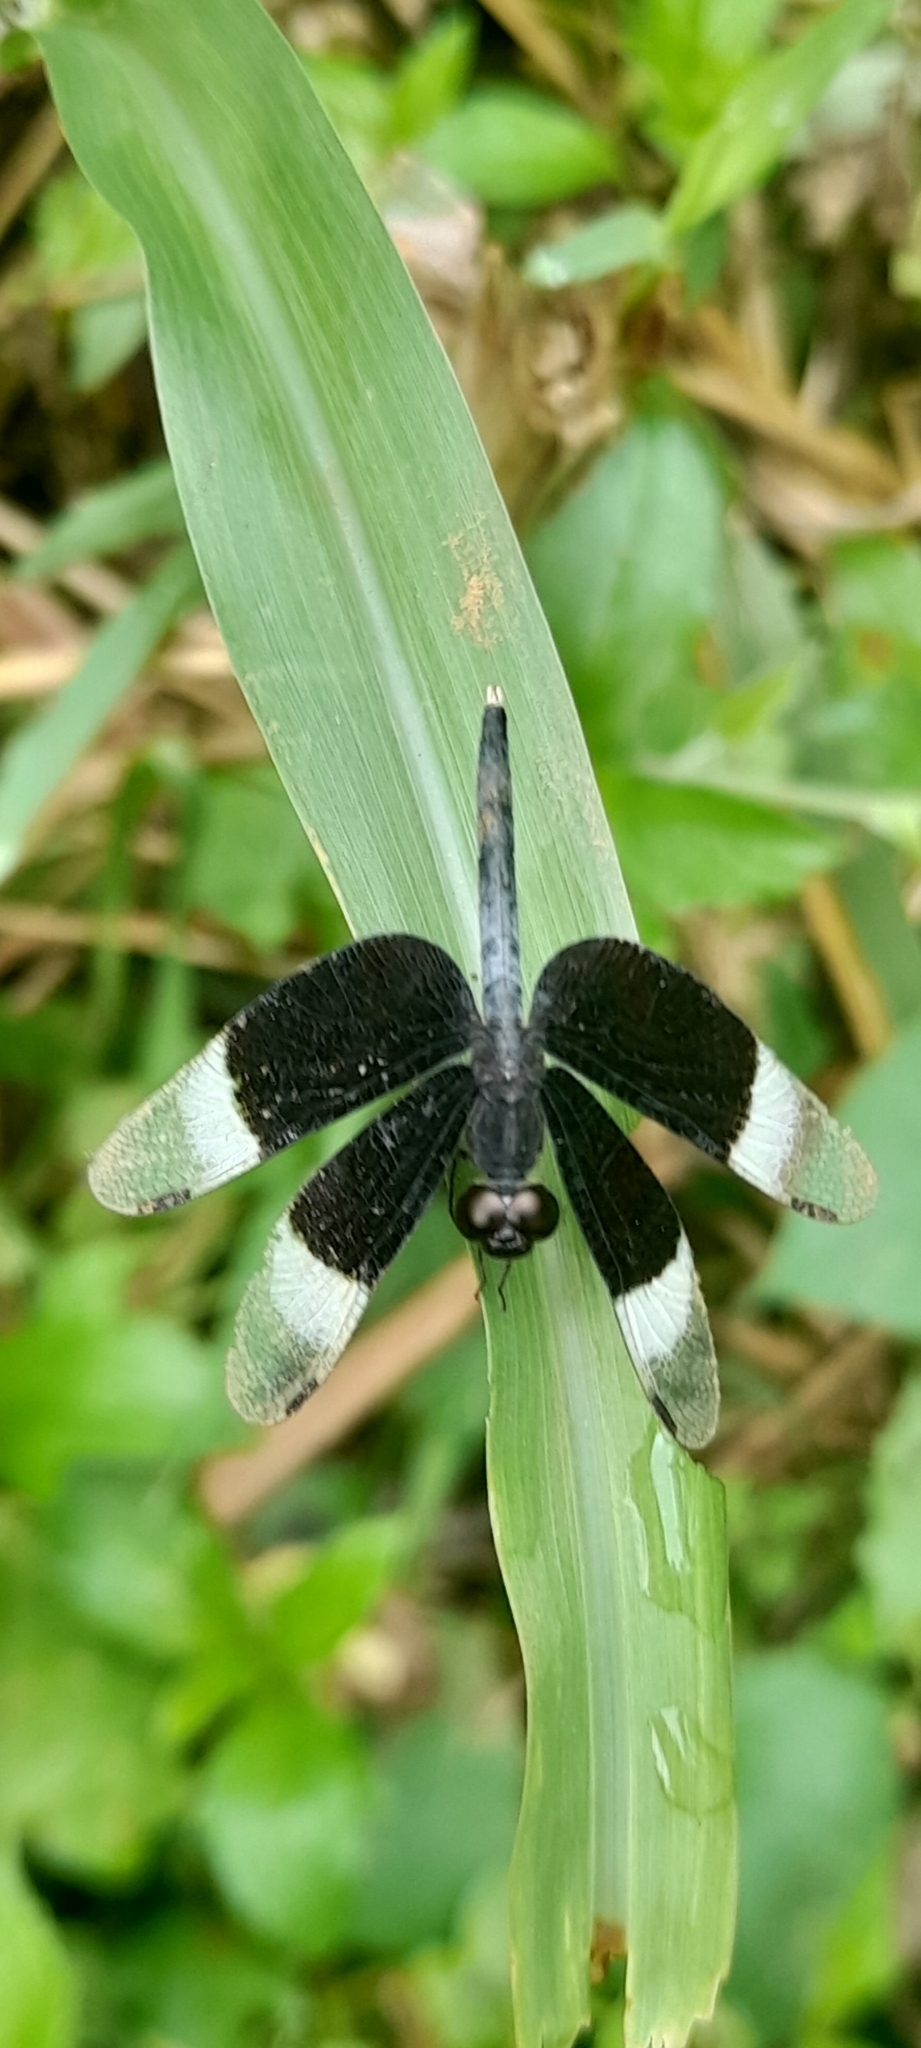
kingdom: Animalia
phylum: Arthropoda
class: Insecta
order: Odonata
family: Libellulidae
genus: Neurothemis
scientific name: Neurothemis tullia
